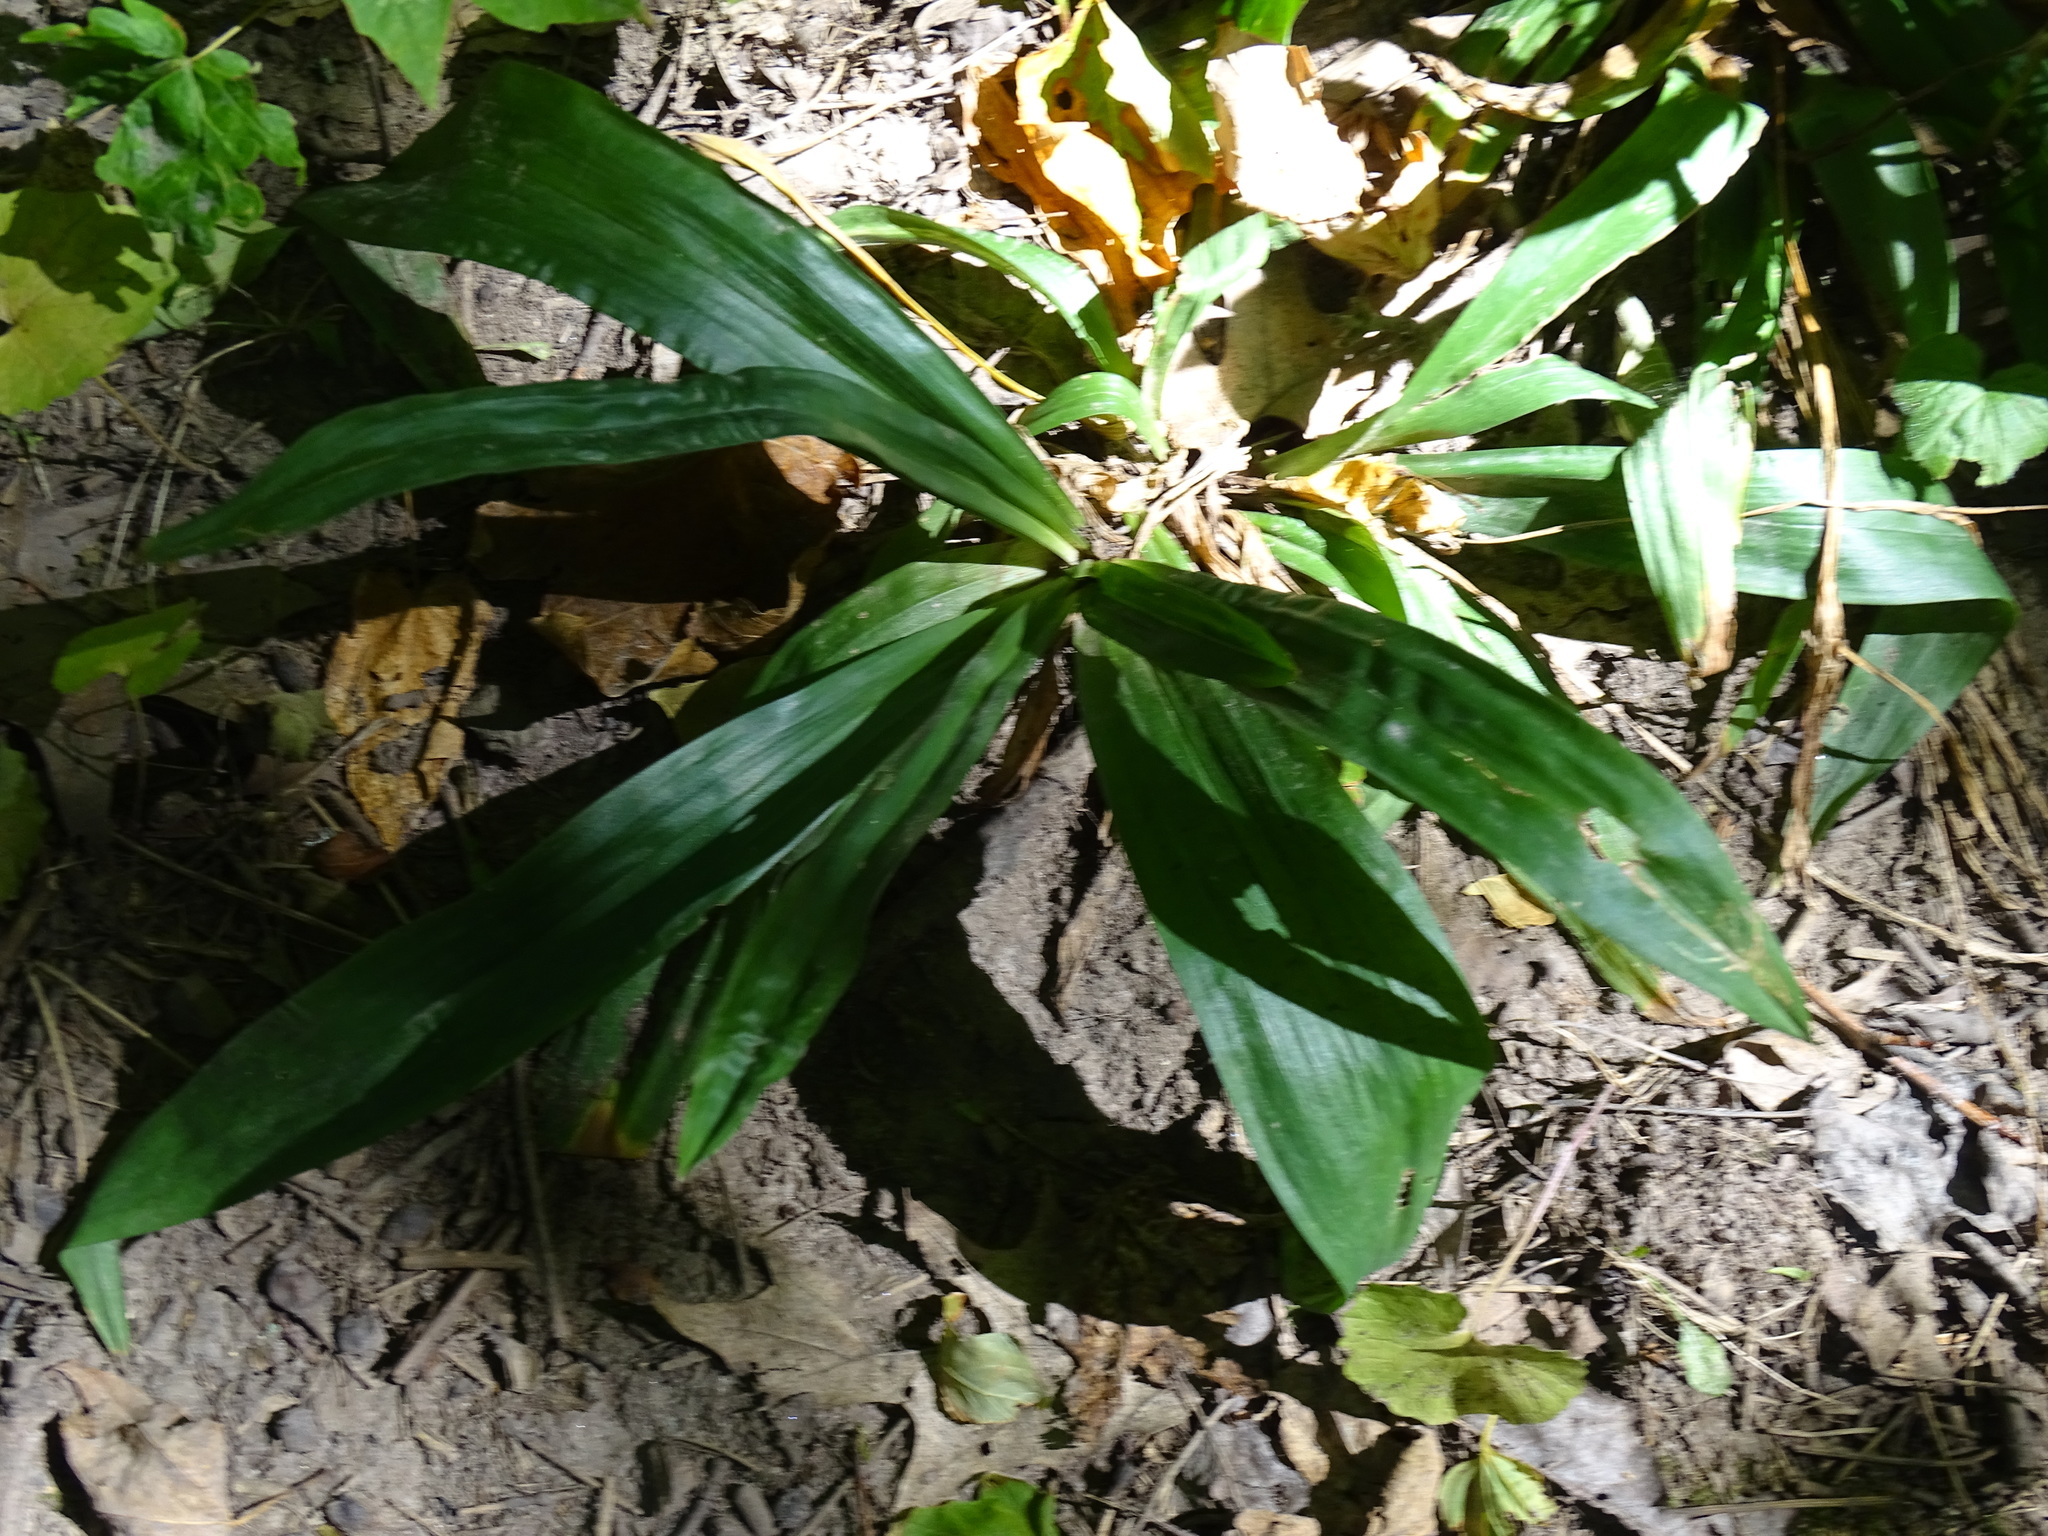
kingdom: Plantae
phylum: Tracheophyta
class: Liliopsida
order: Poales
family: Cyperaceae
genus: Carex
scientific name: Carex albursina
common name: Blunt-scale wood sedge
